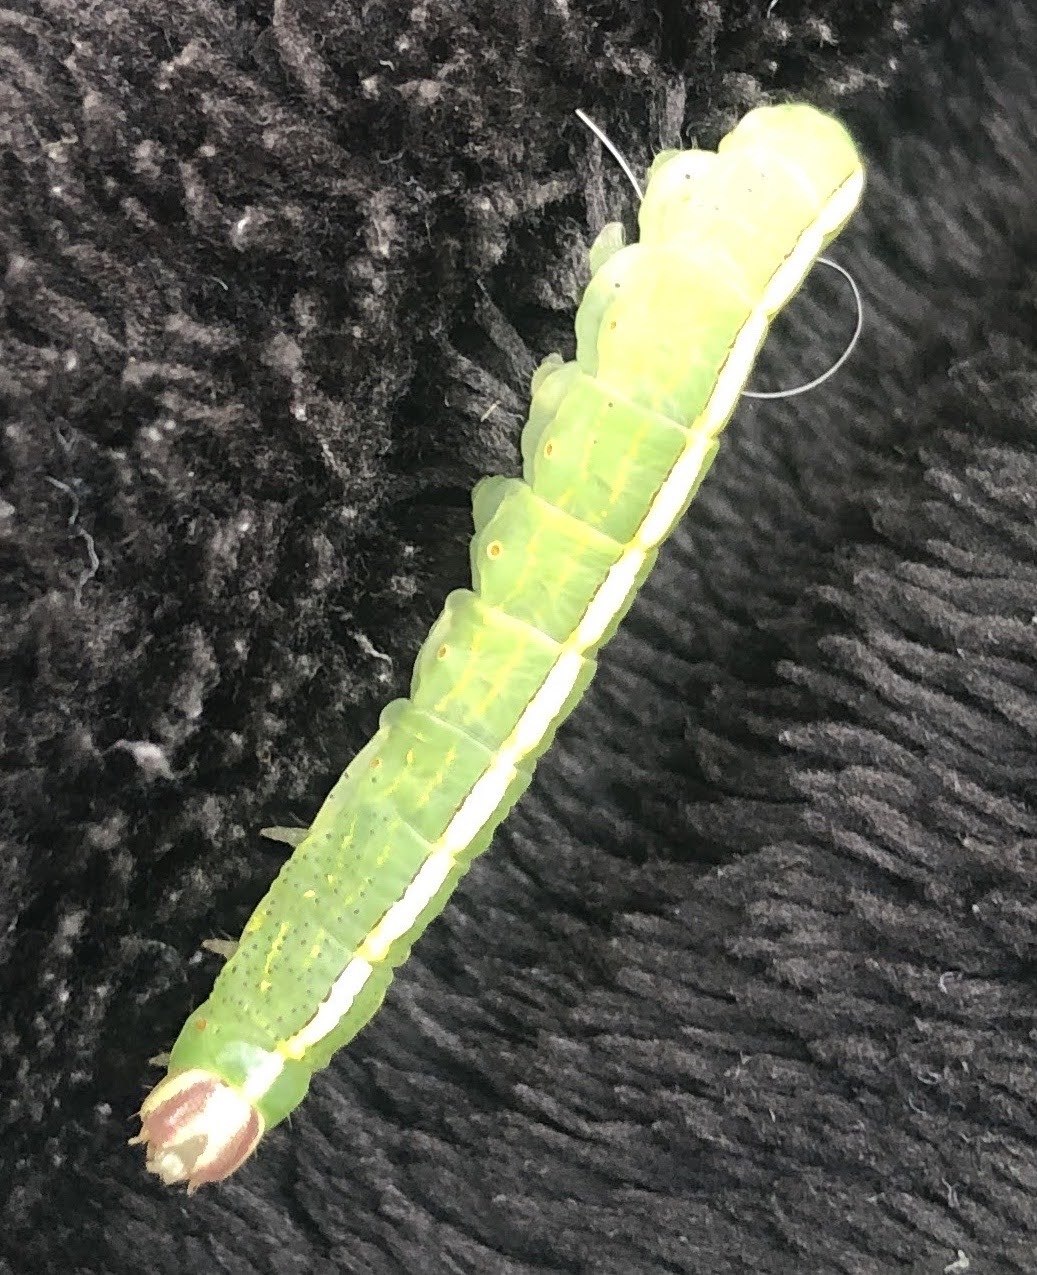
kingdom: Animalia
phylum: Arthropoda
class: Insecta
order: Lepidoptera
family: Notodontidae
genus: Misogada
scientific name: Misogada unicolor
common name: Drab prominent
